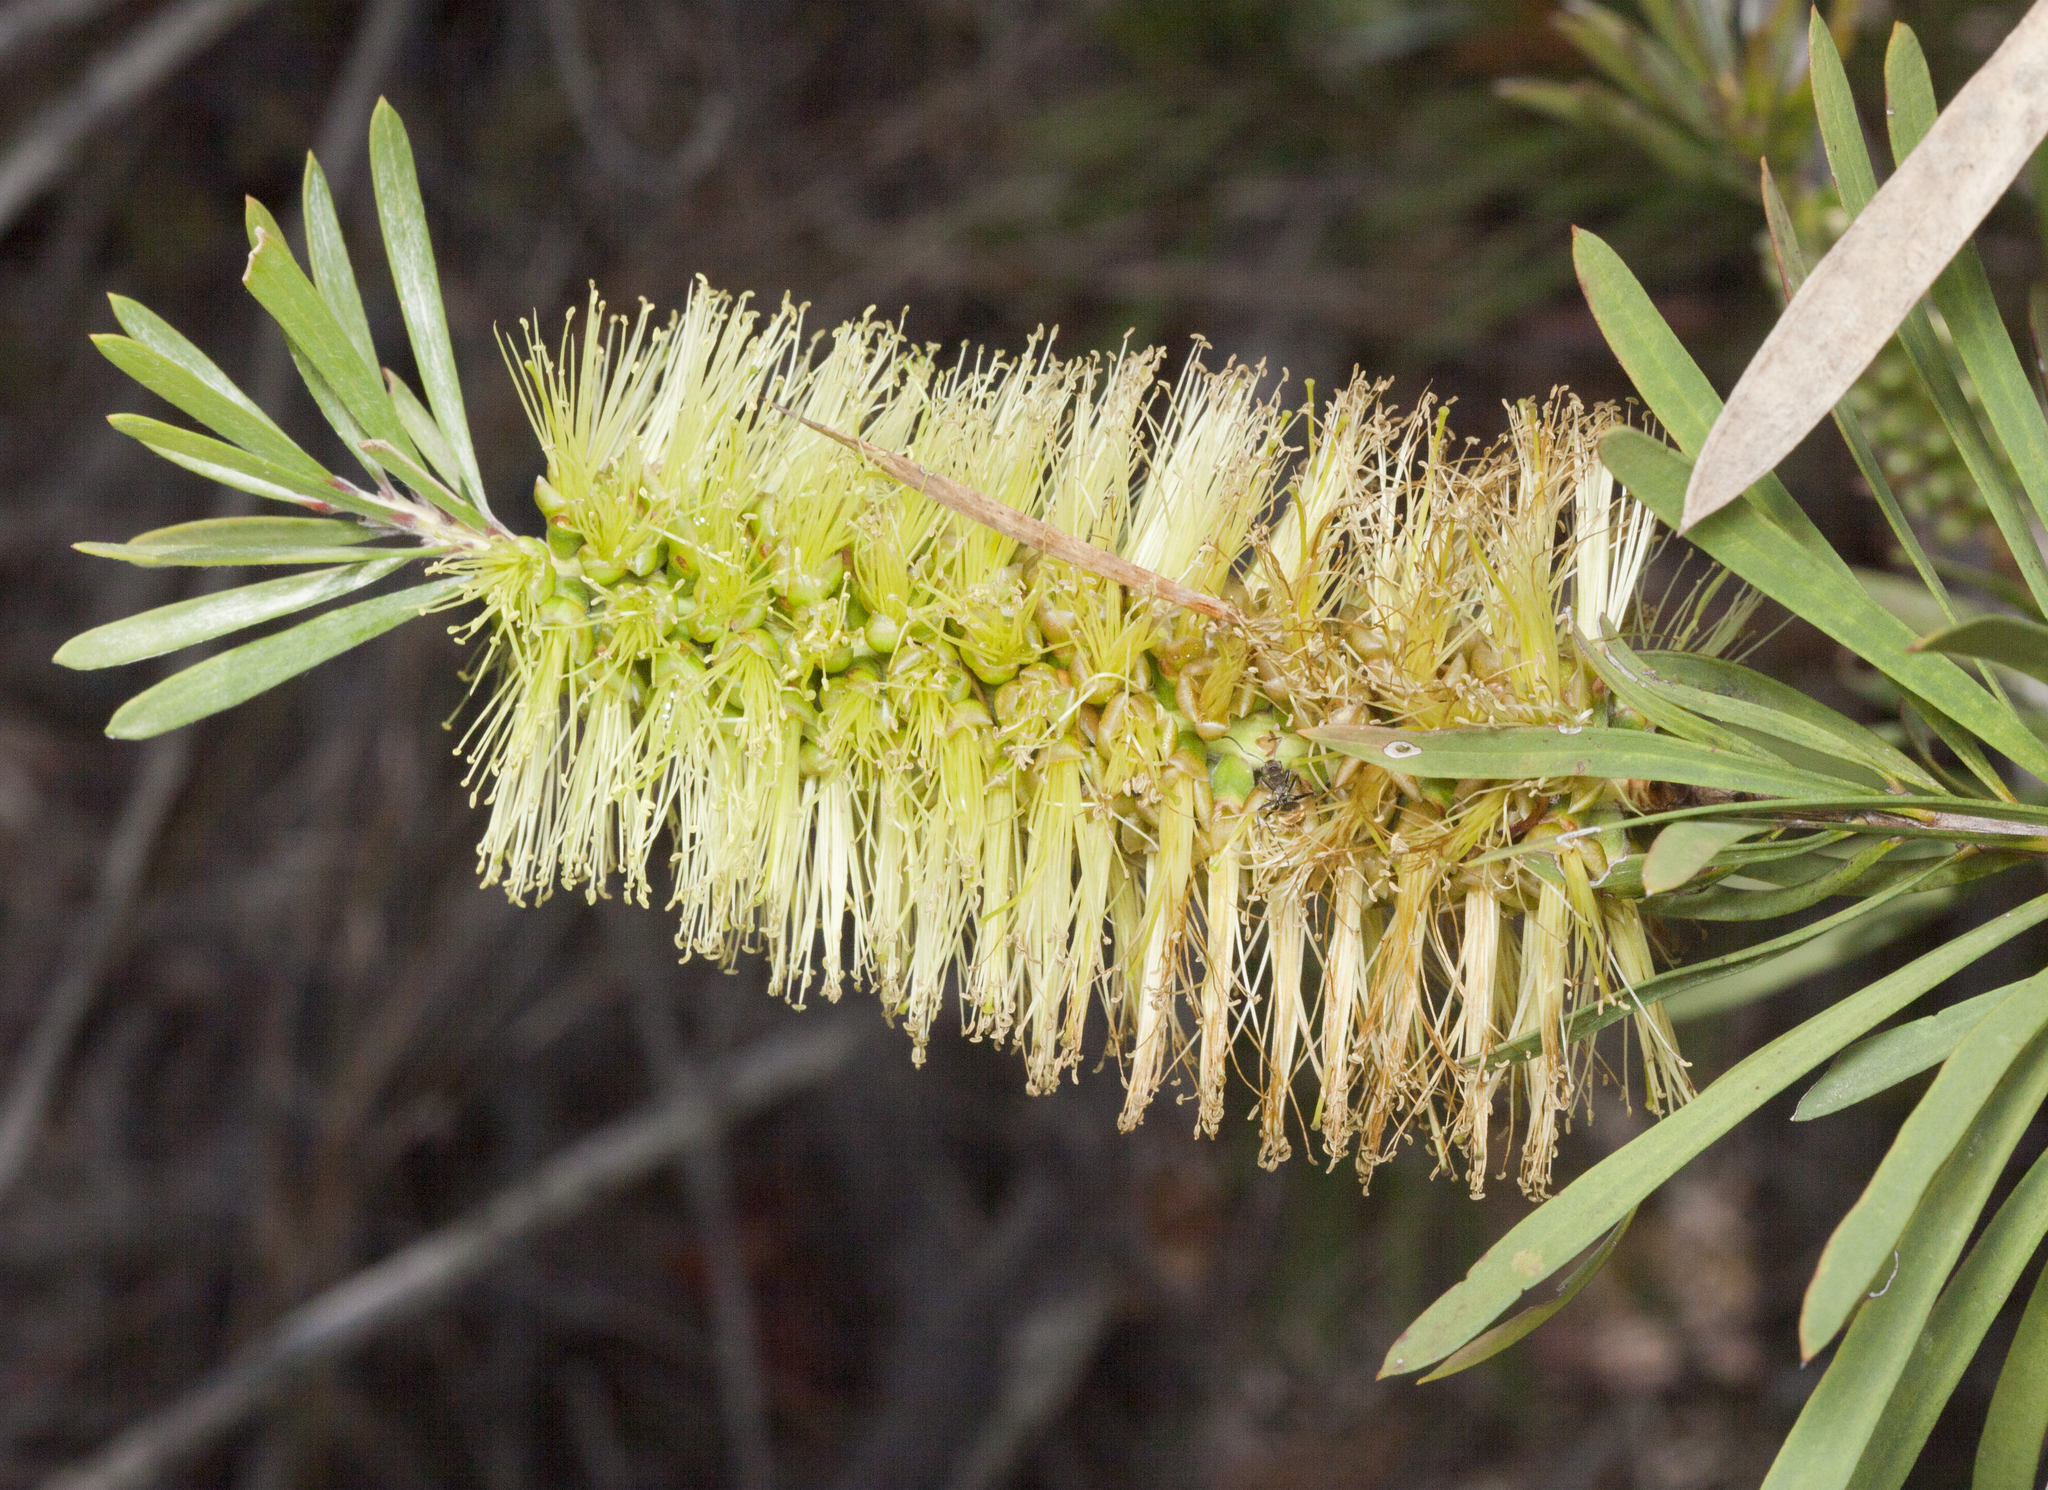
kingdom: Plantae
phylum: Tracheophyta
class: Magnoliopsida
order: Myrtales
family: Myrtaceae
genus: Callistemon
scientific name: Callistemon pachyphyllus
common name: Wallum bottlebrush
